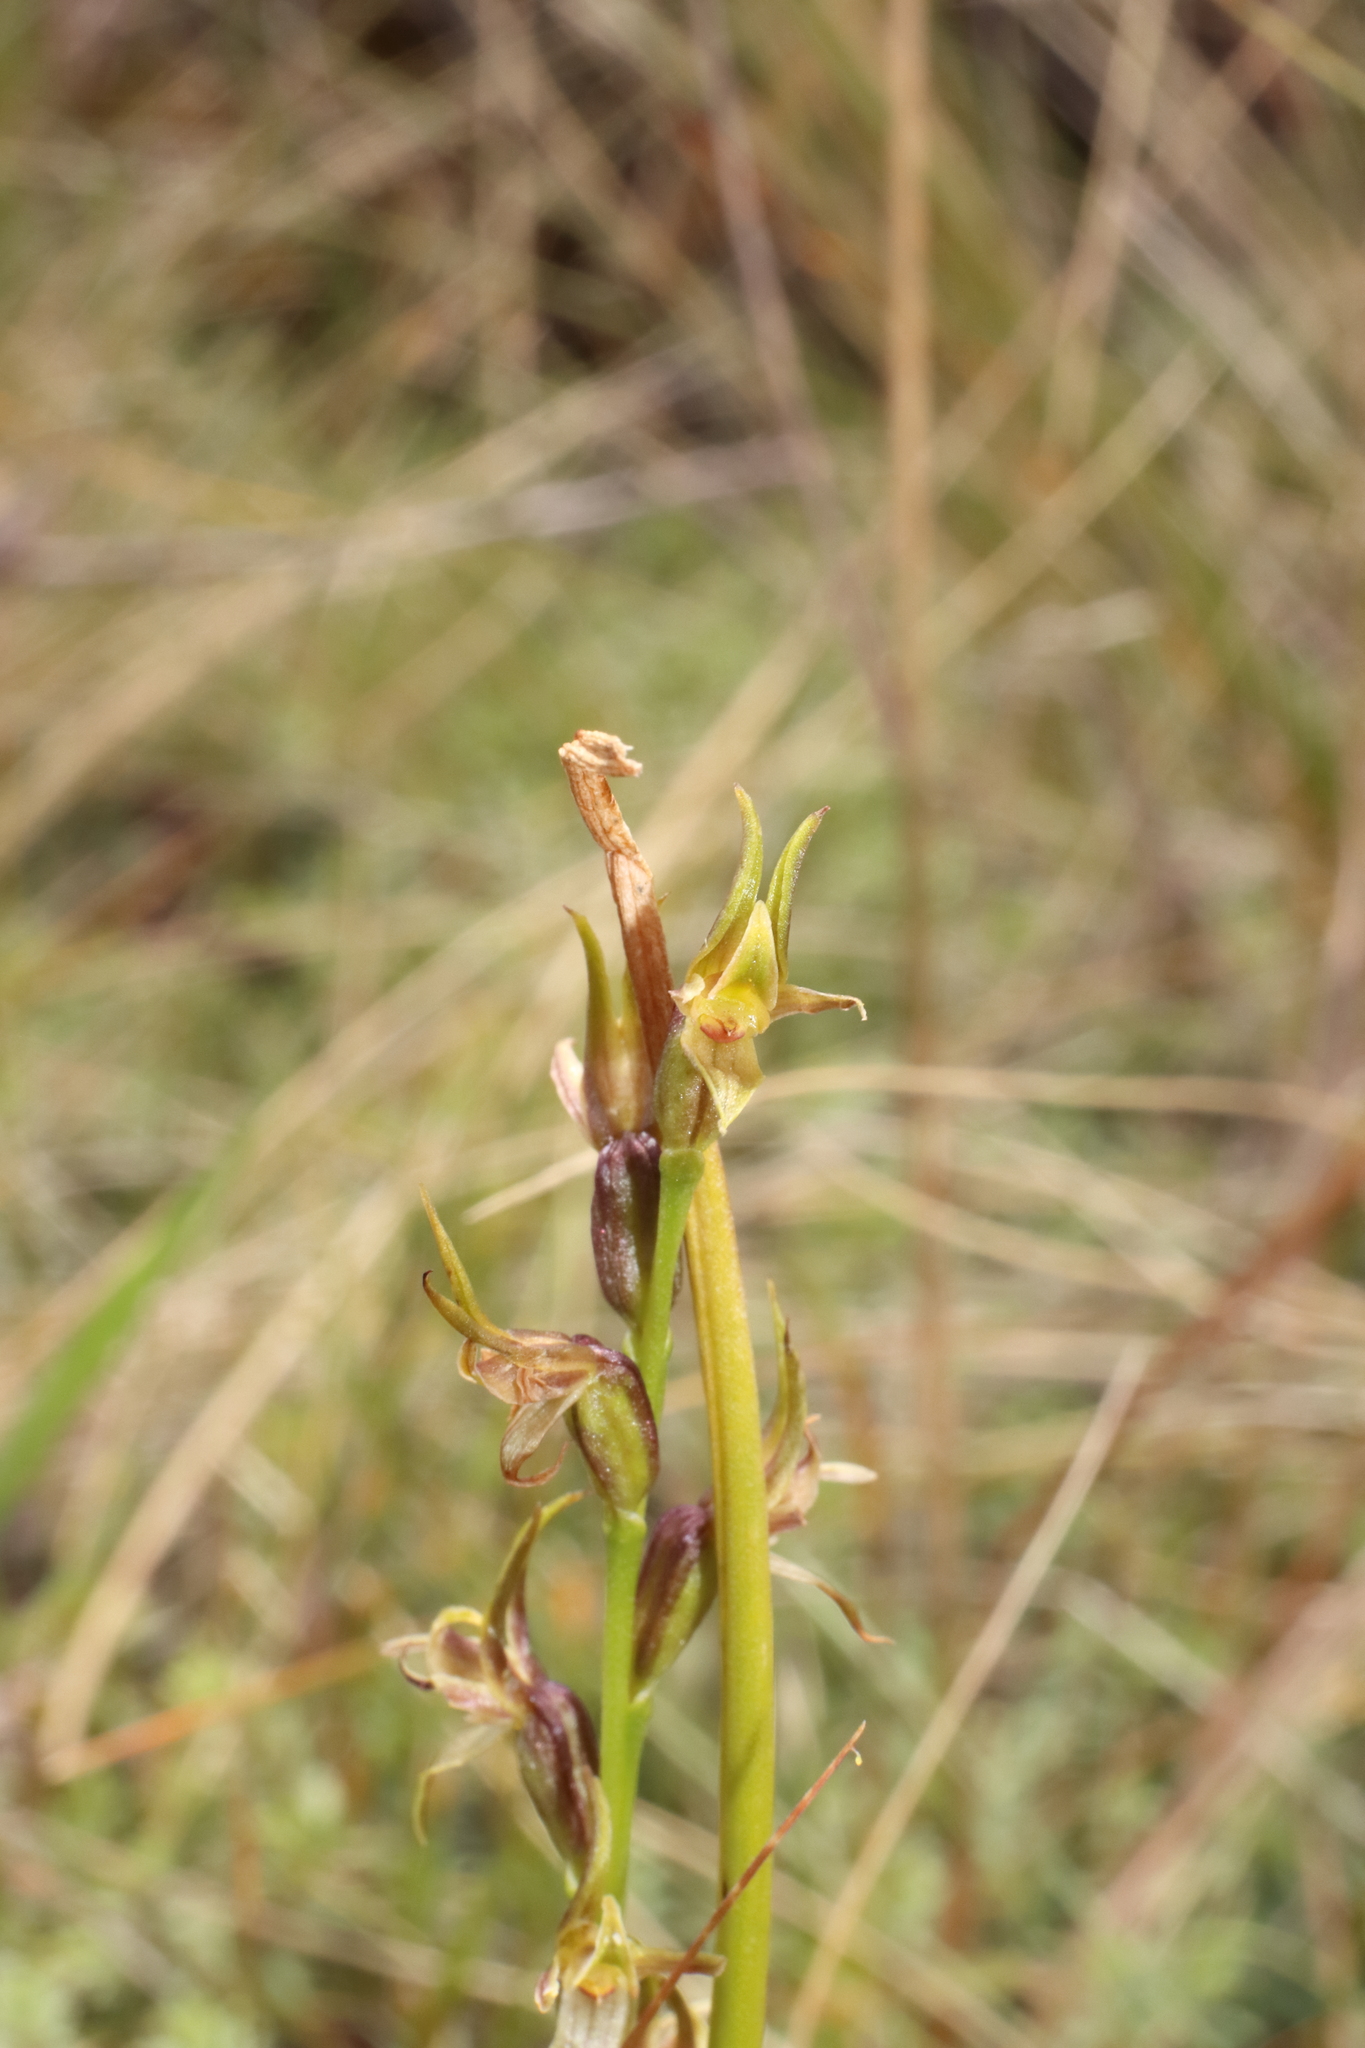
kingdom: Plantae
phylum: Tracheophyta
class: Liliopsida
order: Asparagales
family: Orchidaceae
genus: Prasophyllum
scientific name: Prasophyllum colensoi
